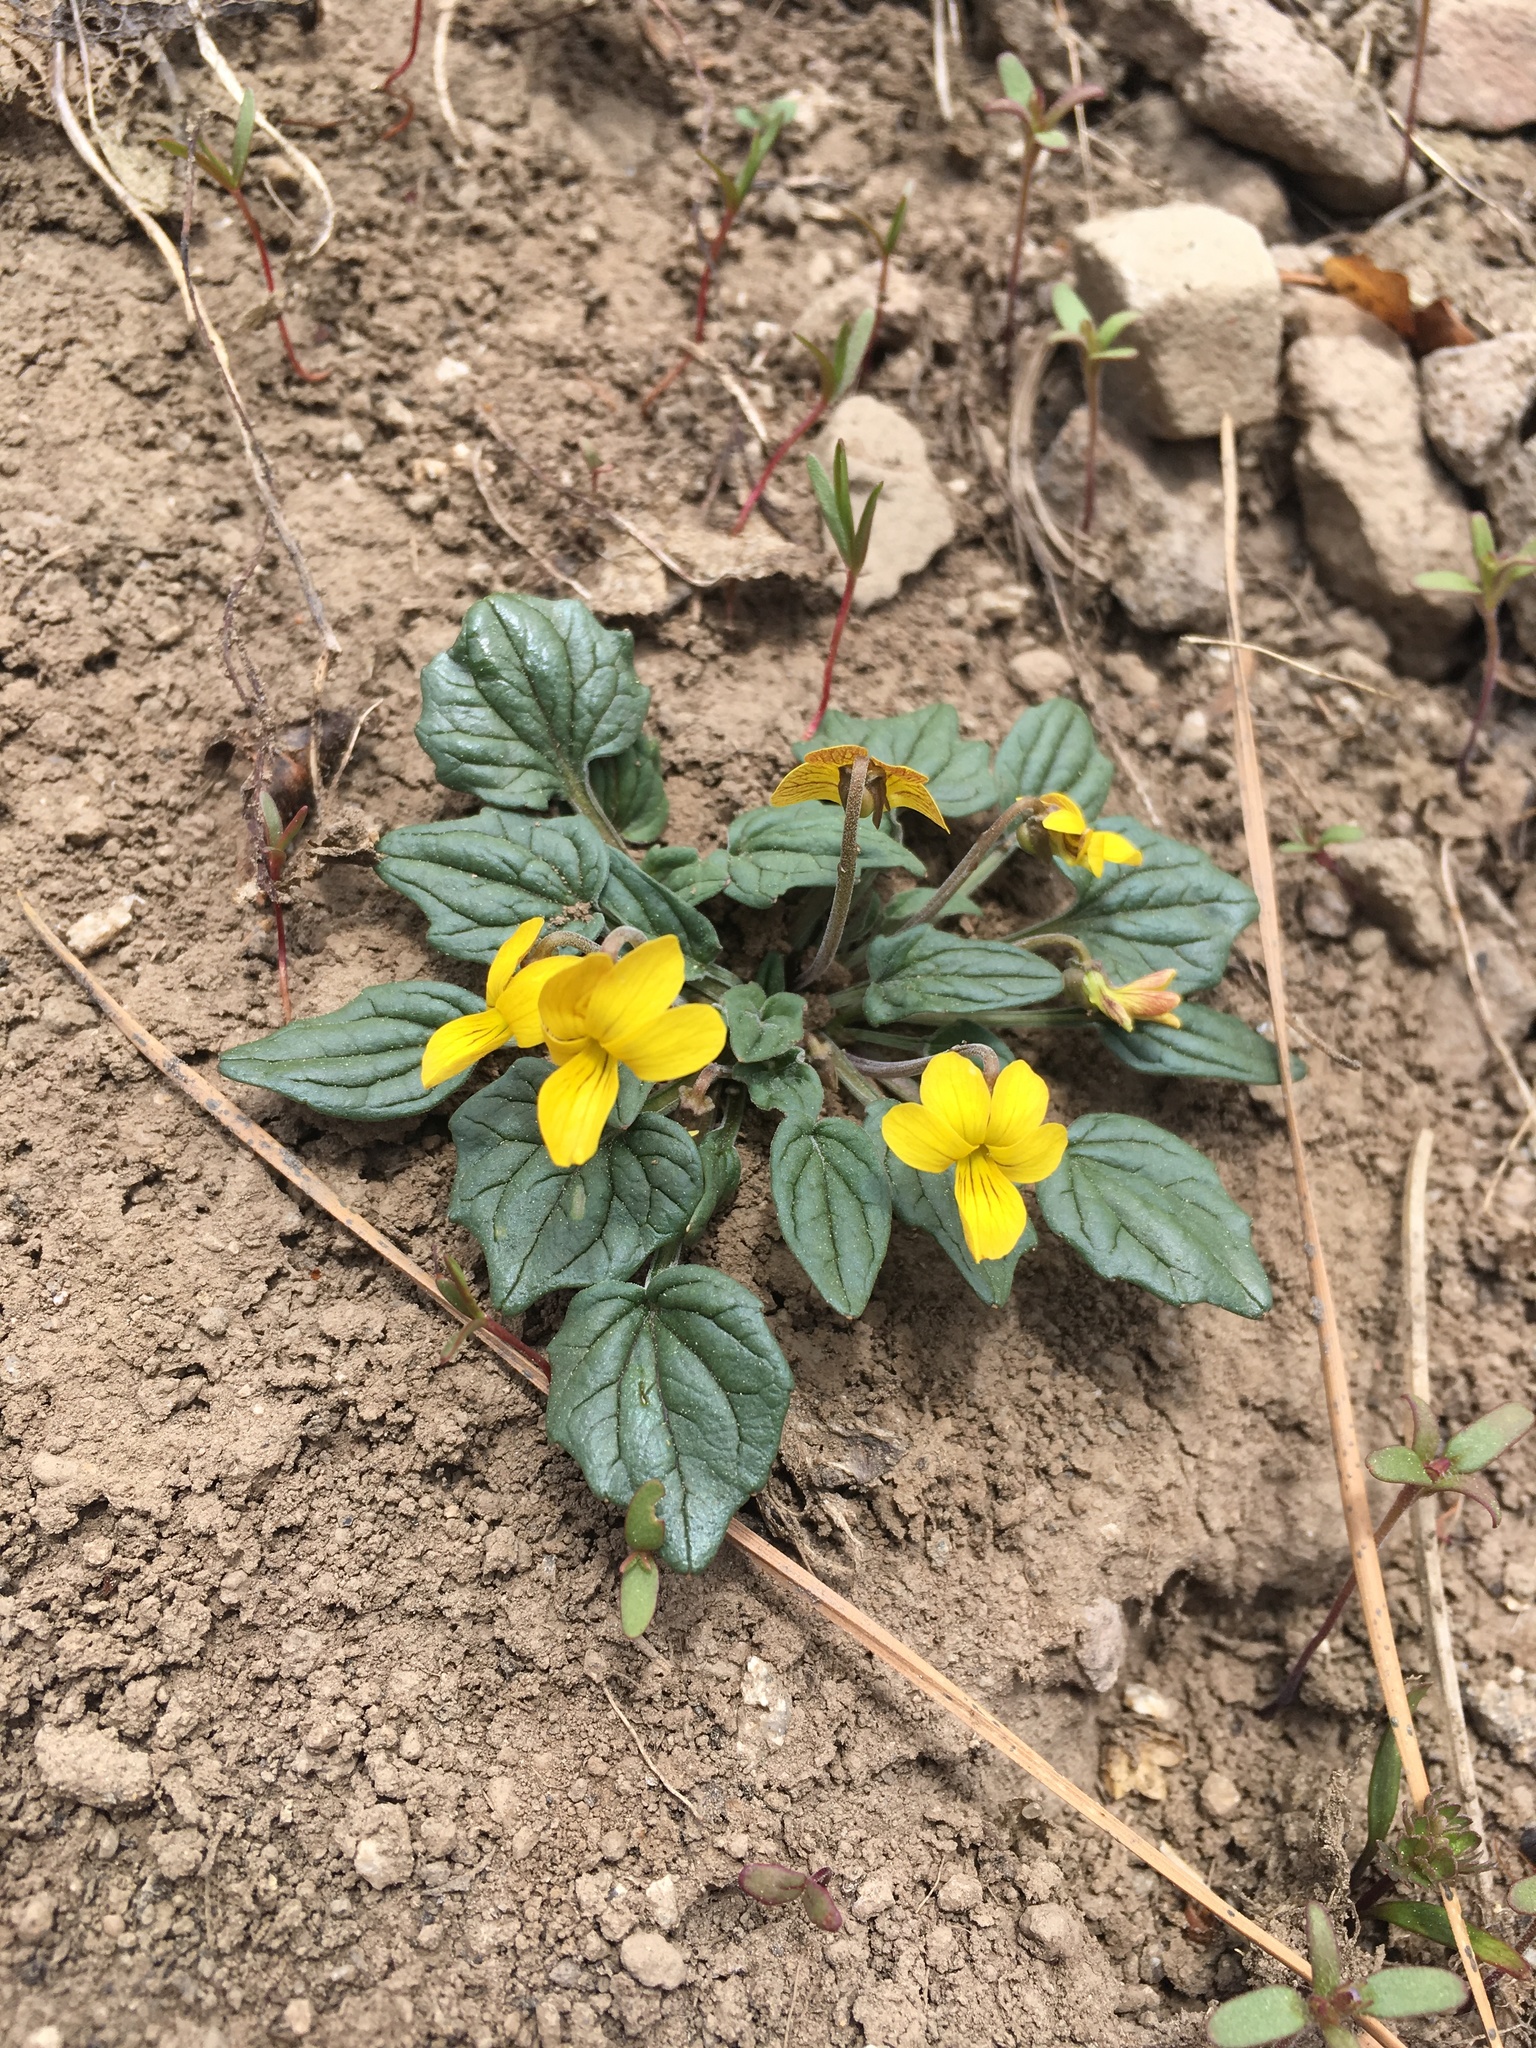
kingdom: Plantae
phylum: Tracheophyta
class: Magnoliopsida
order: Malpighiales
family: Violaceae
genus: Viola
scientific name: Viola purpurea
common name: Pine violet
